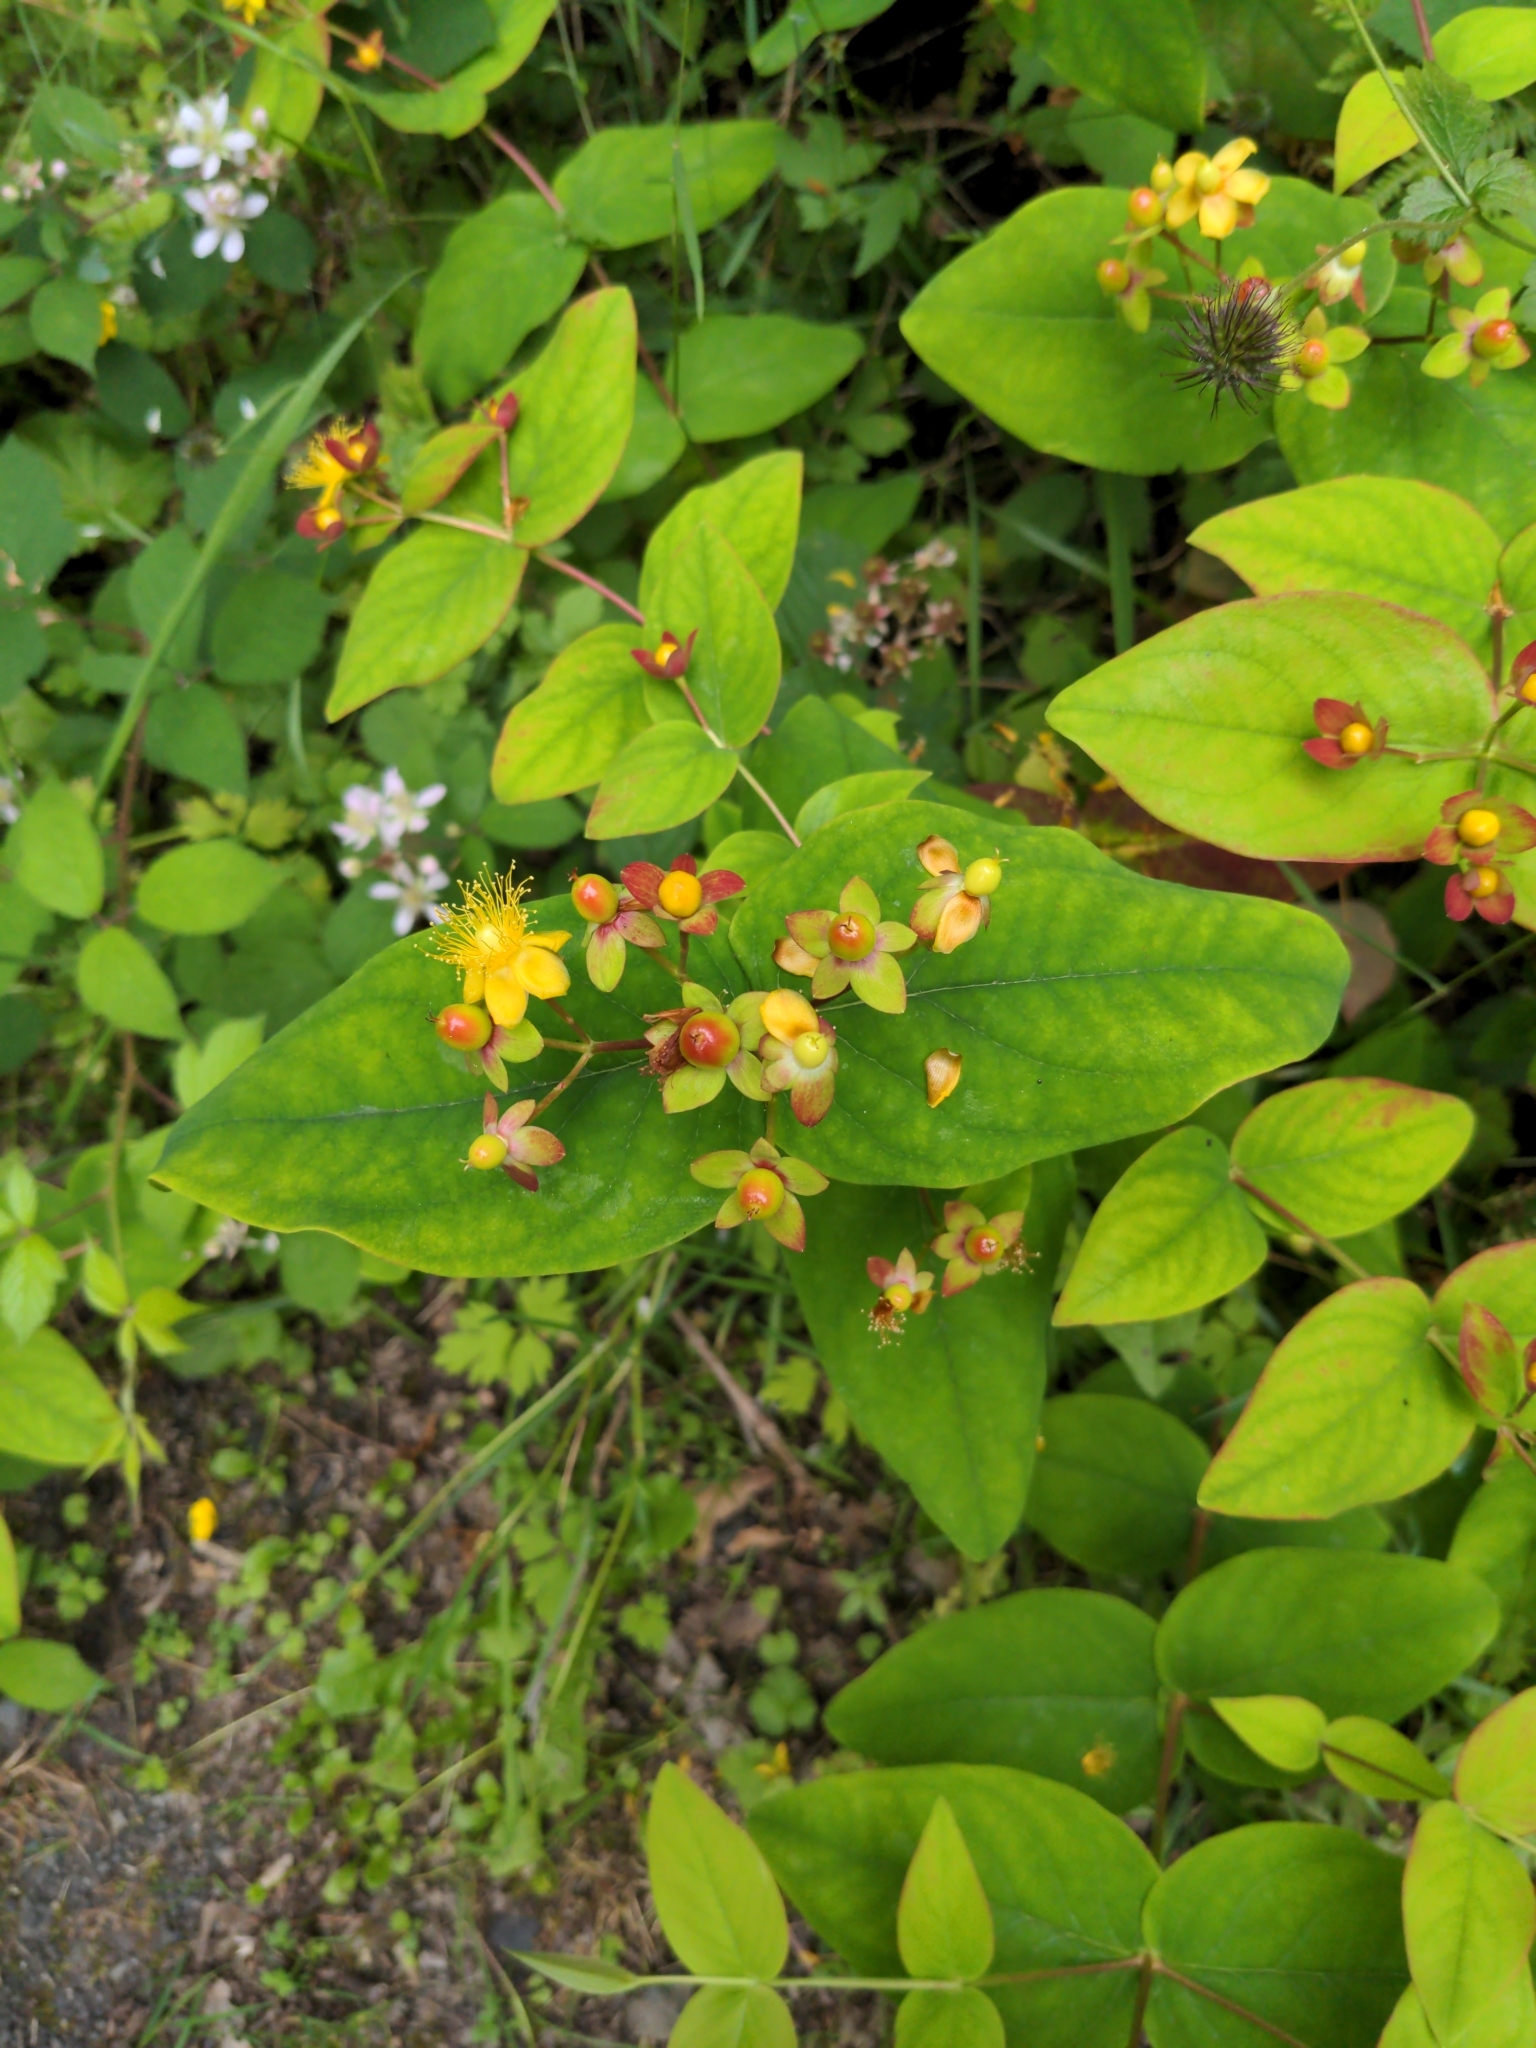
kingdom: Plantae
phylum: Tracheophyta
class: Magnoliopsida
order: Malpighiales
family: Hypericaceae
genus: Hypericum
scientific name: Hypericum androsaemum
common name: Sweet-amber
